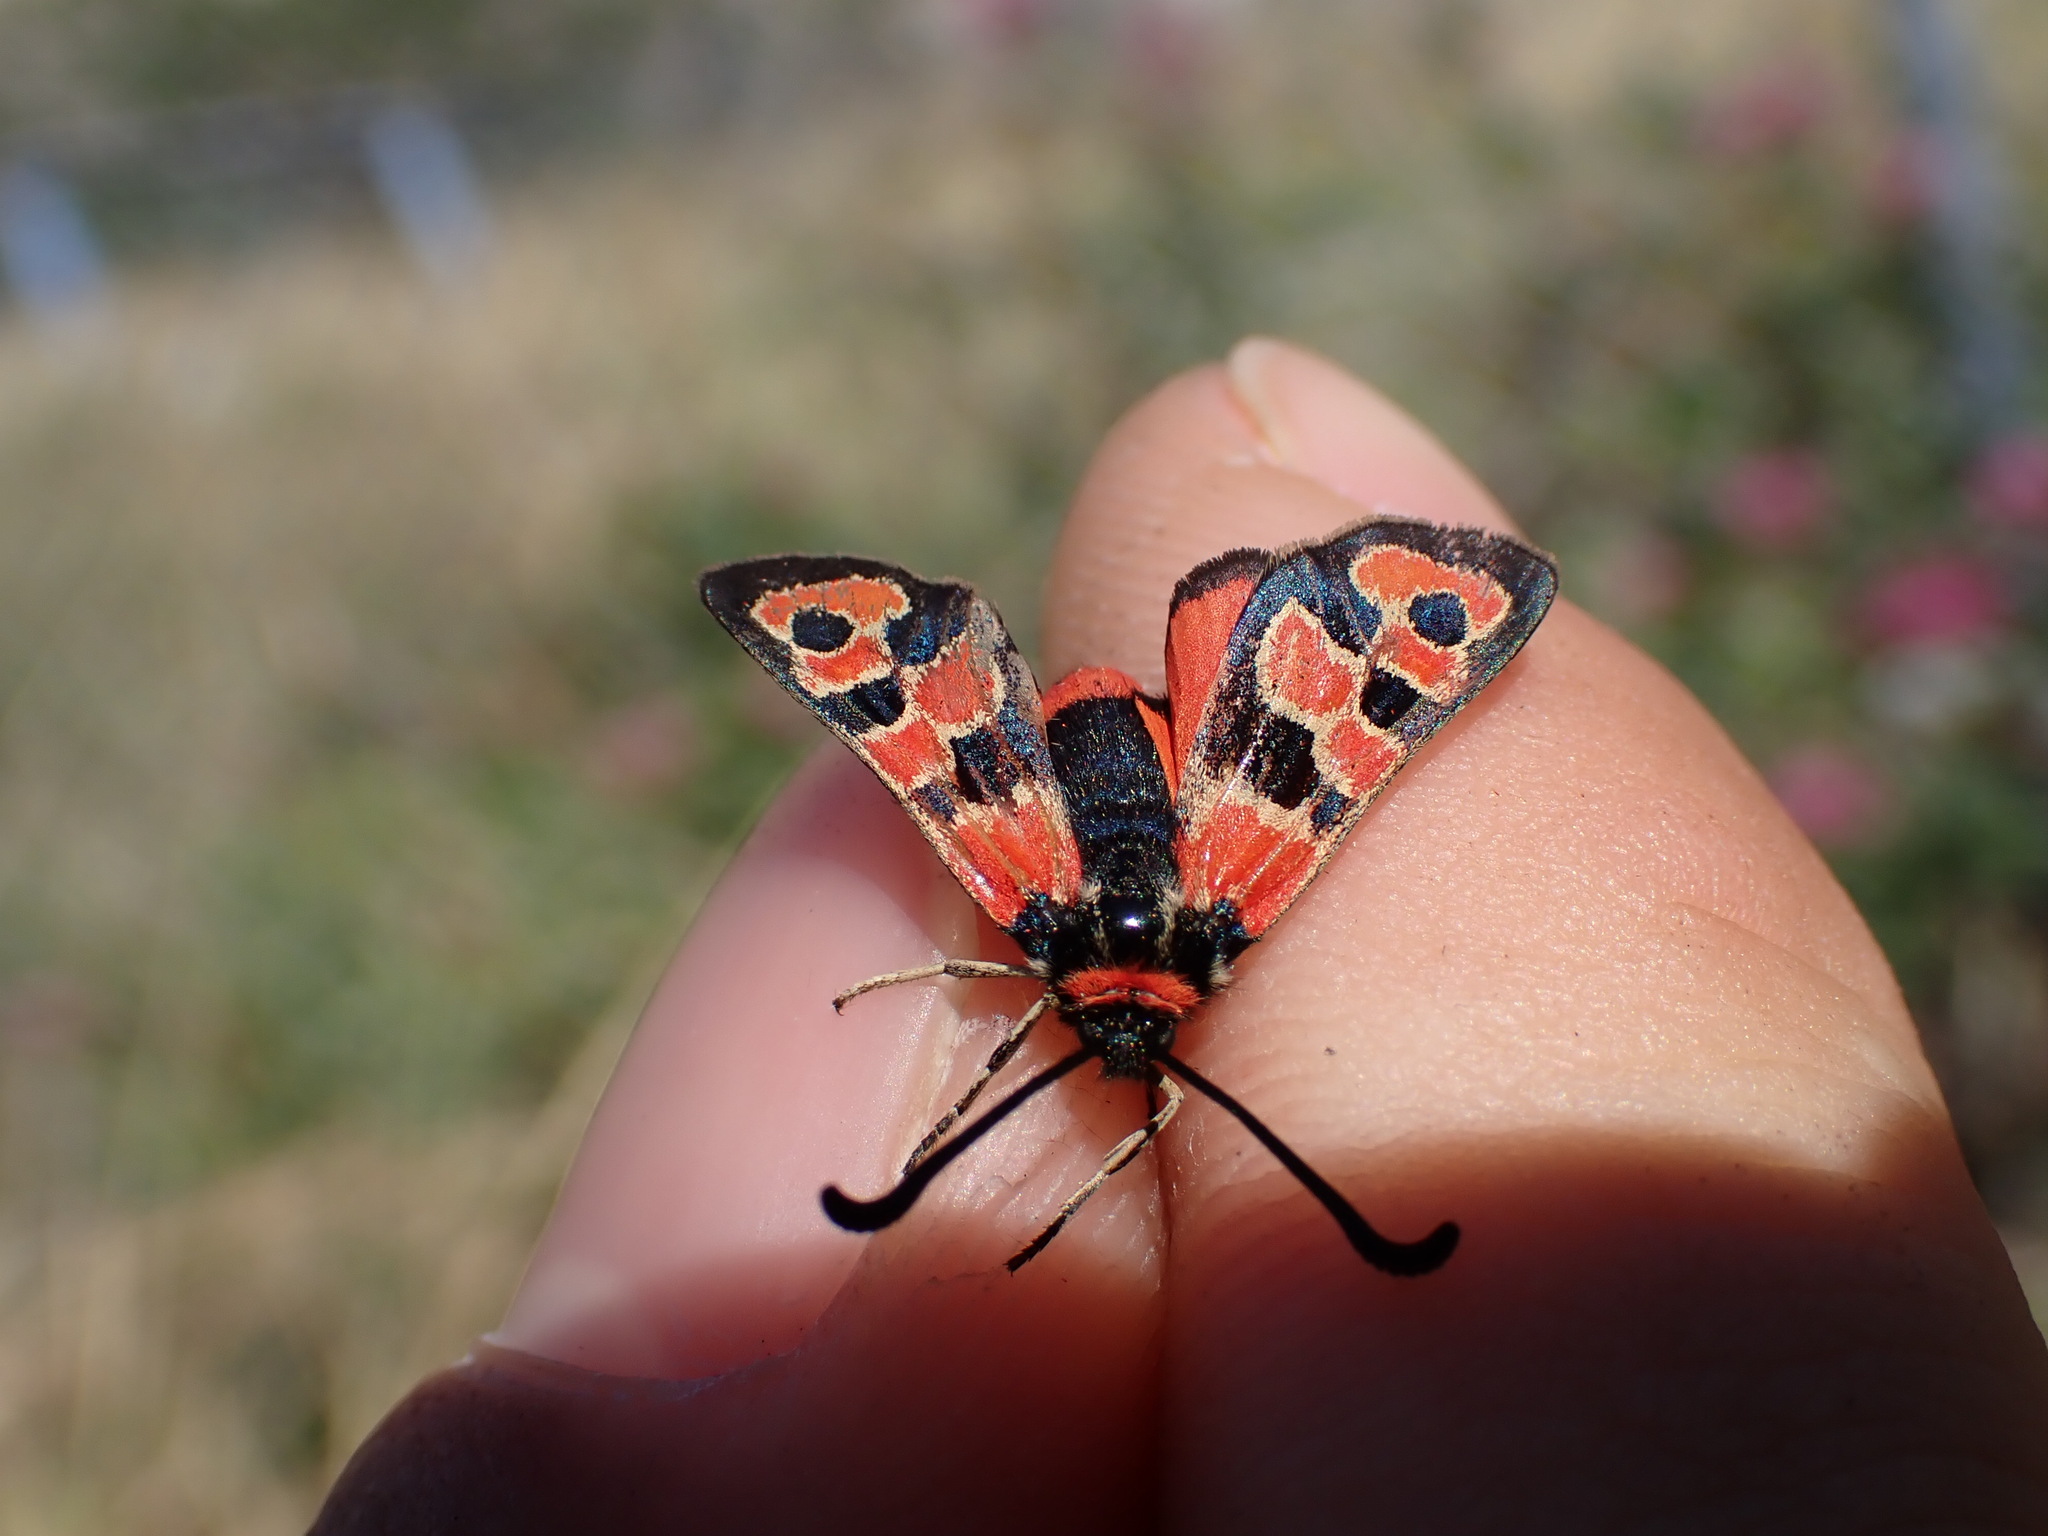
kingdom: Animalia
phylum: Arthropoda
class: Insecta
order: Lepidoptera
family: Zygaenidae
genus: Zygaena
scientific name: Zygaena fausta
